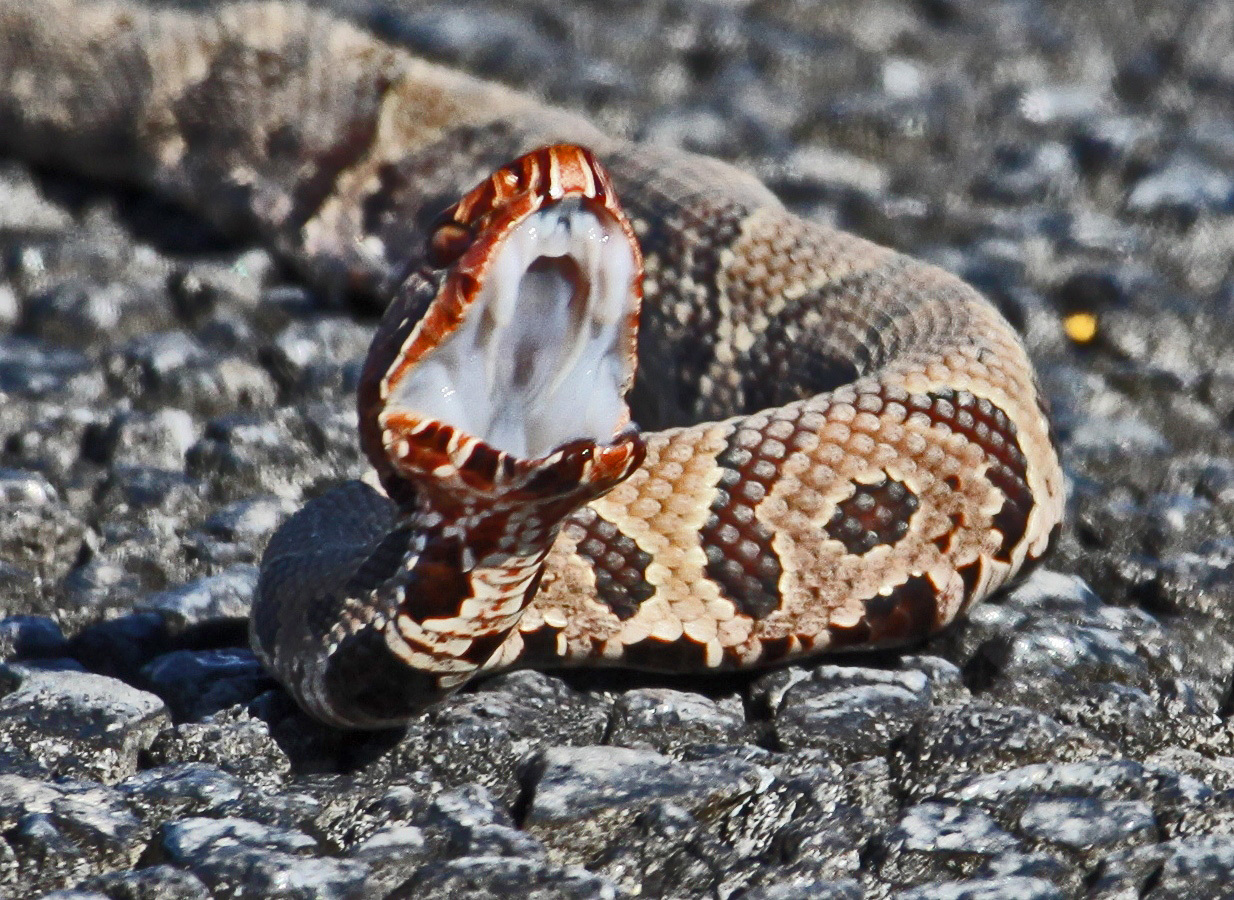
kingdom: Animalia
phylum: Chordata
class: Squamata
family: Viperidae
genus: Agkistrodon
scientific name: Agkistrodon conanti
